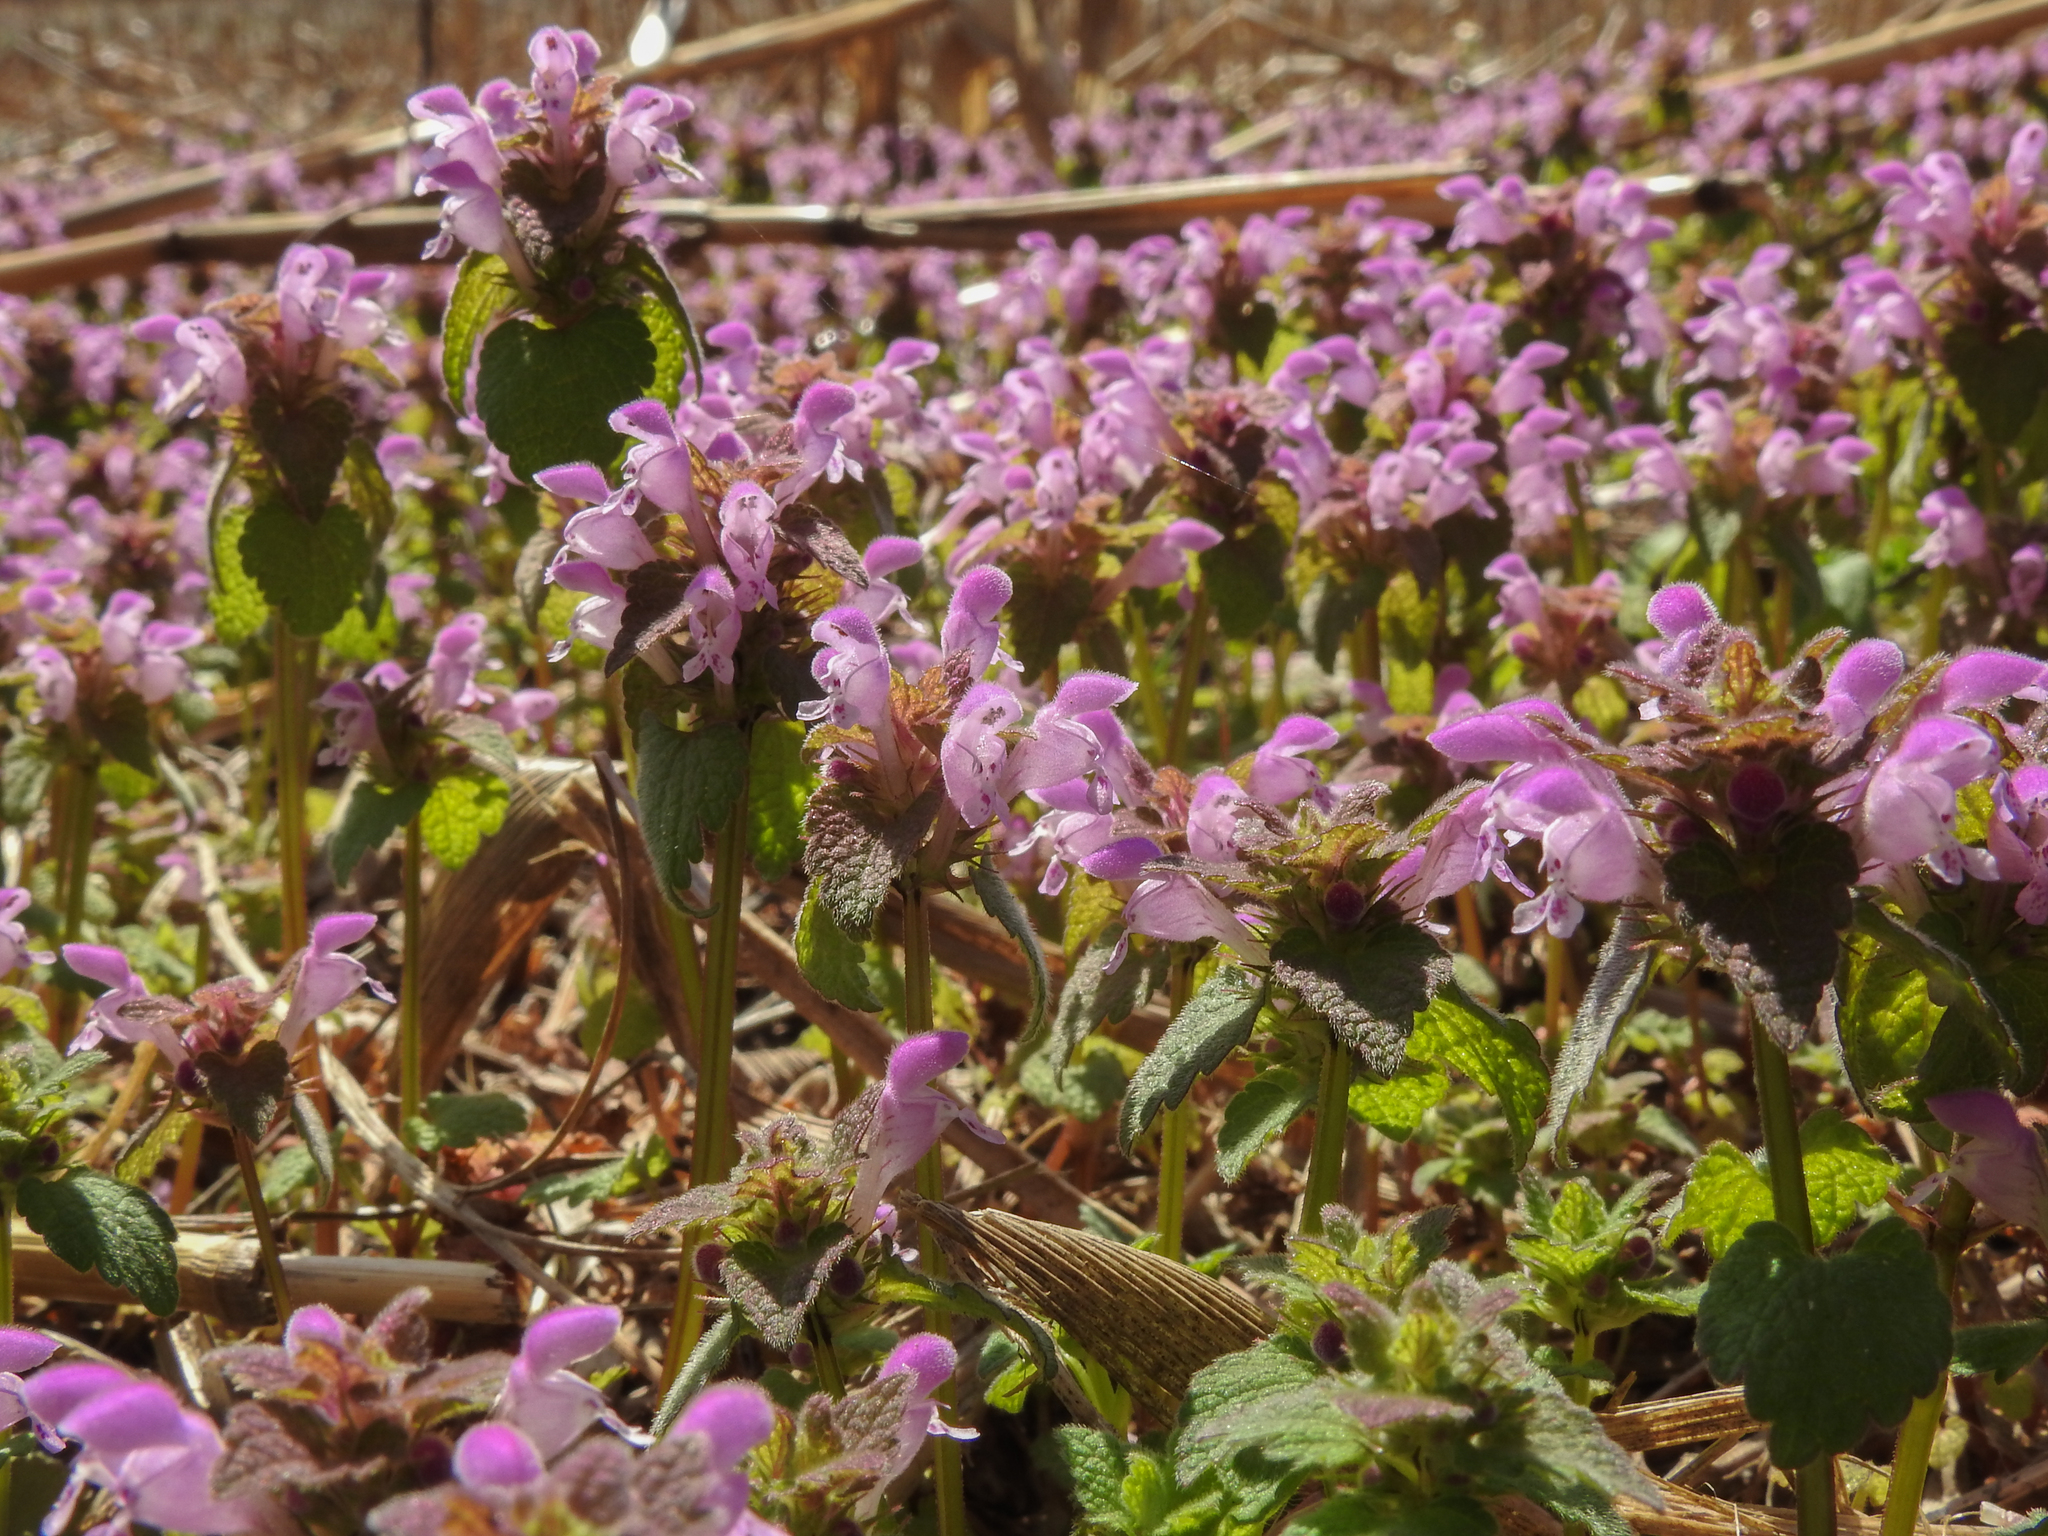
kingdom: Plantae
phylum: Tracheophyta
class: Magnoliopsida
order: Lamiales
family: Lamiaceae
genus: Lamium
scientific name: Lamium purpureum
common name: Red dead-nettle
